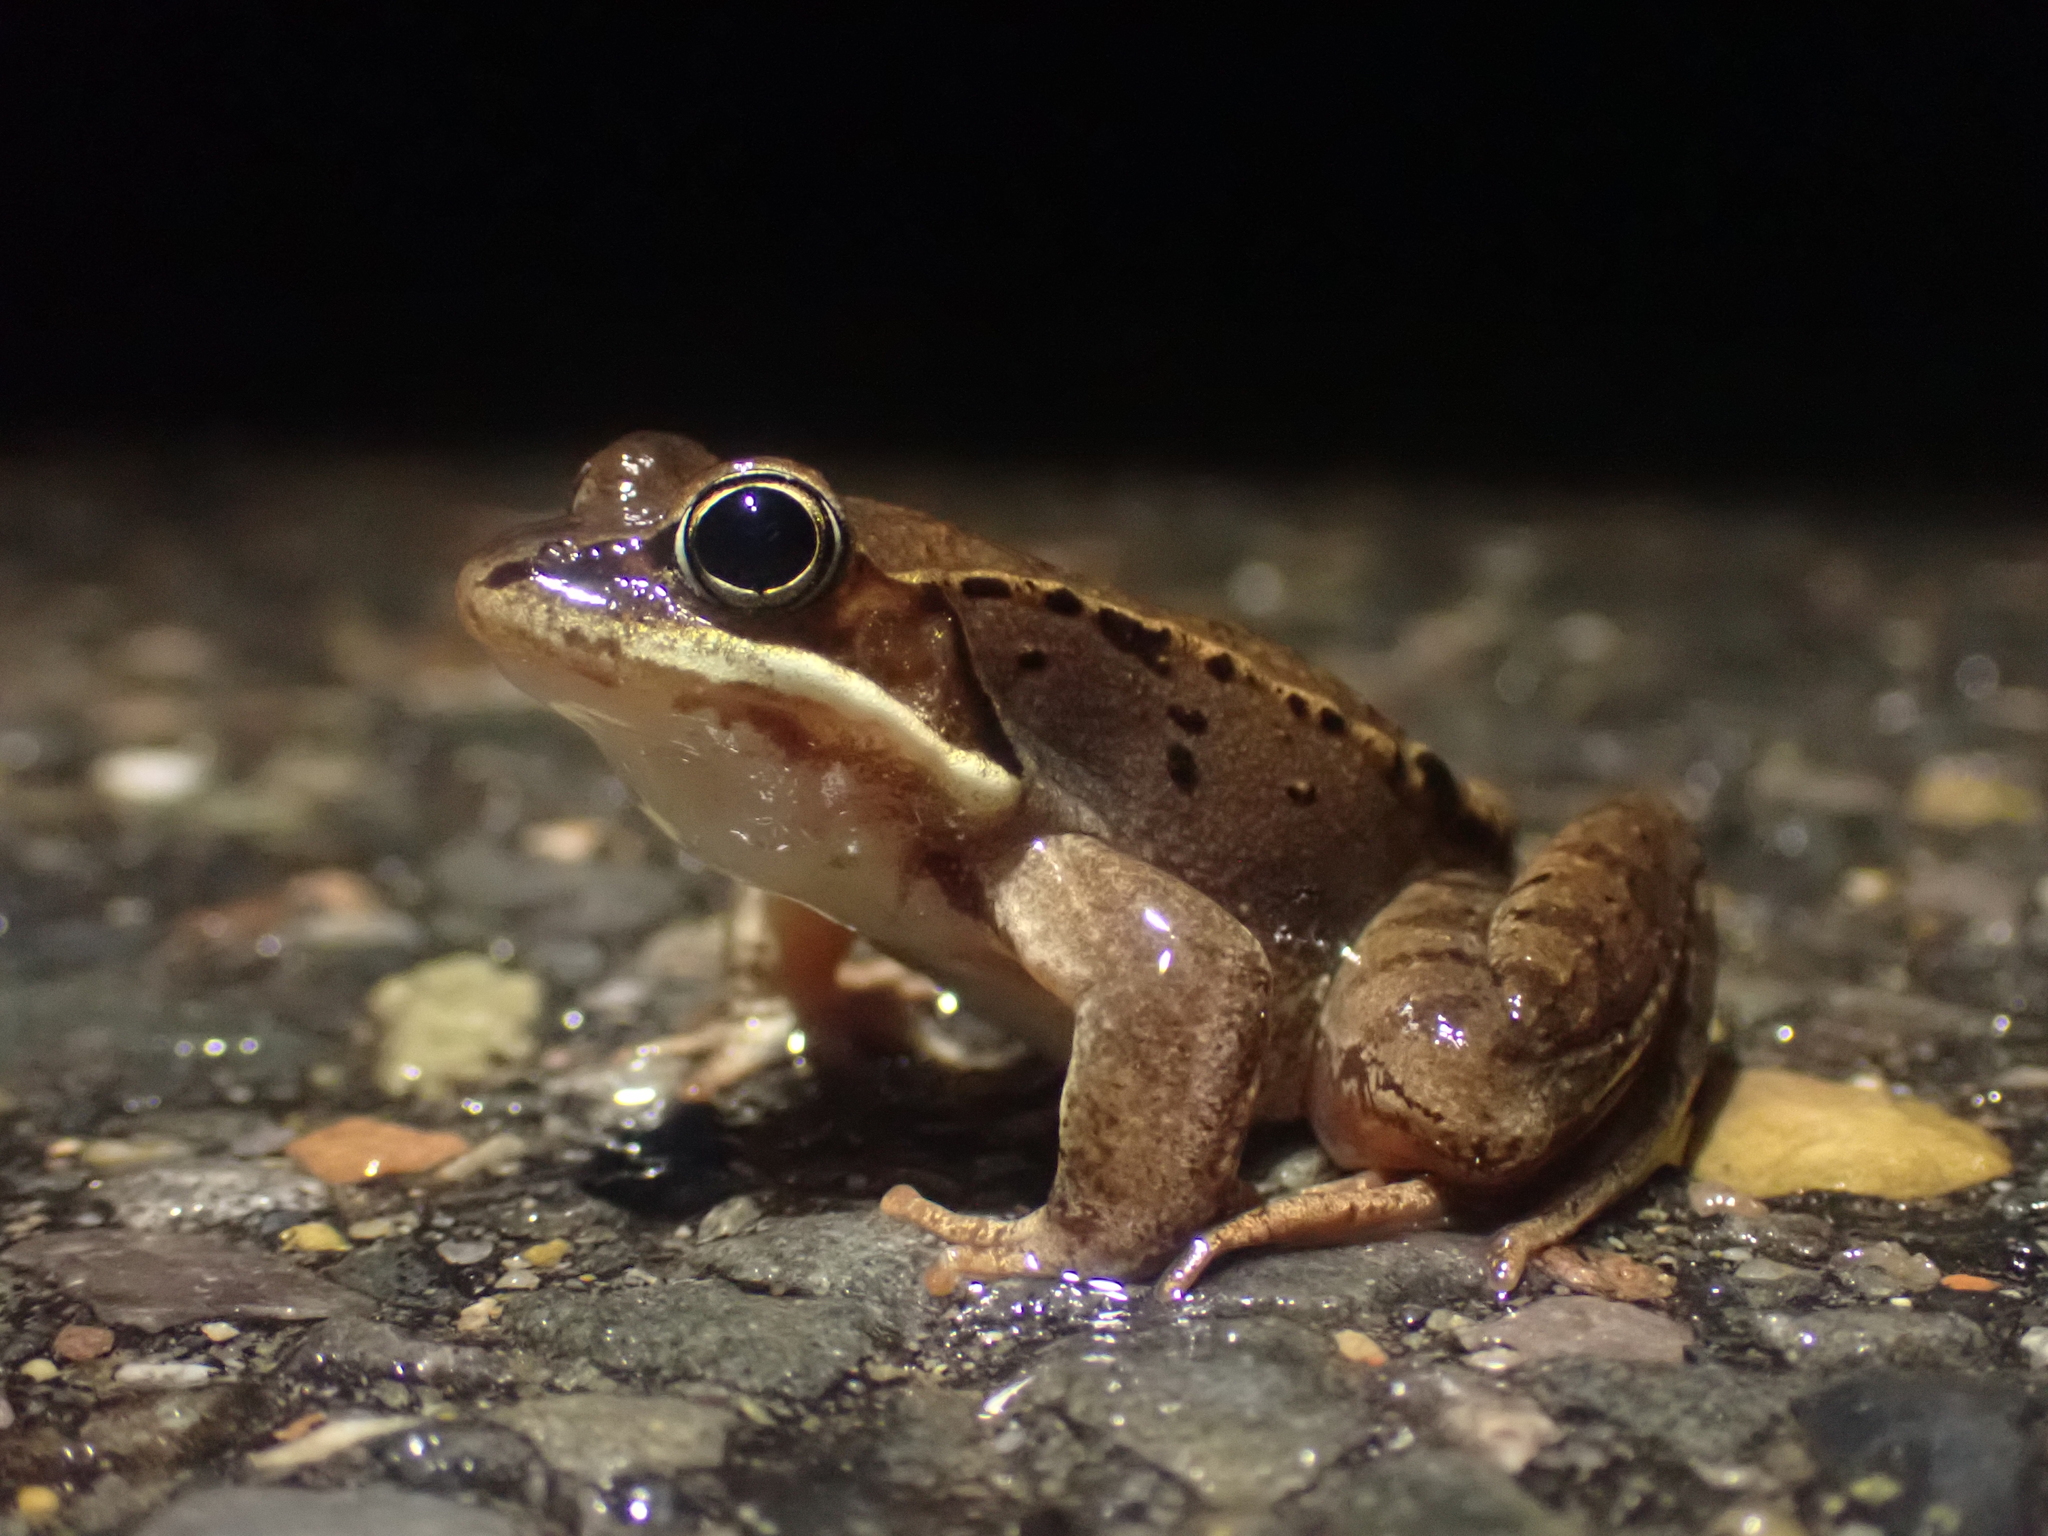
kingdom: Animalia
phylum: Chordata
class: Amphibia
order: Anura
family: Ranidae
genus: Lithobates
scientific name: Lithobates sylvaticus
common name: Wood frog
